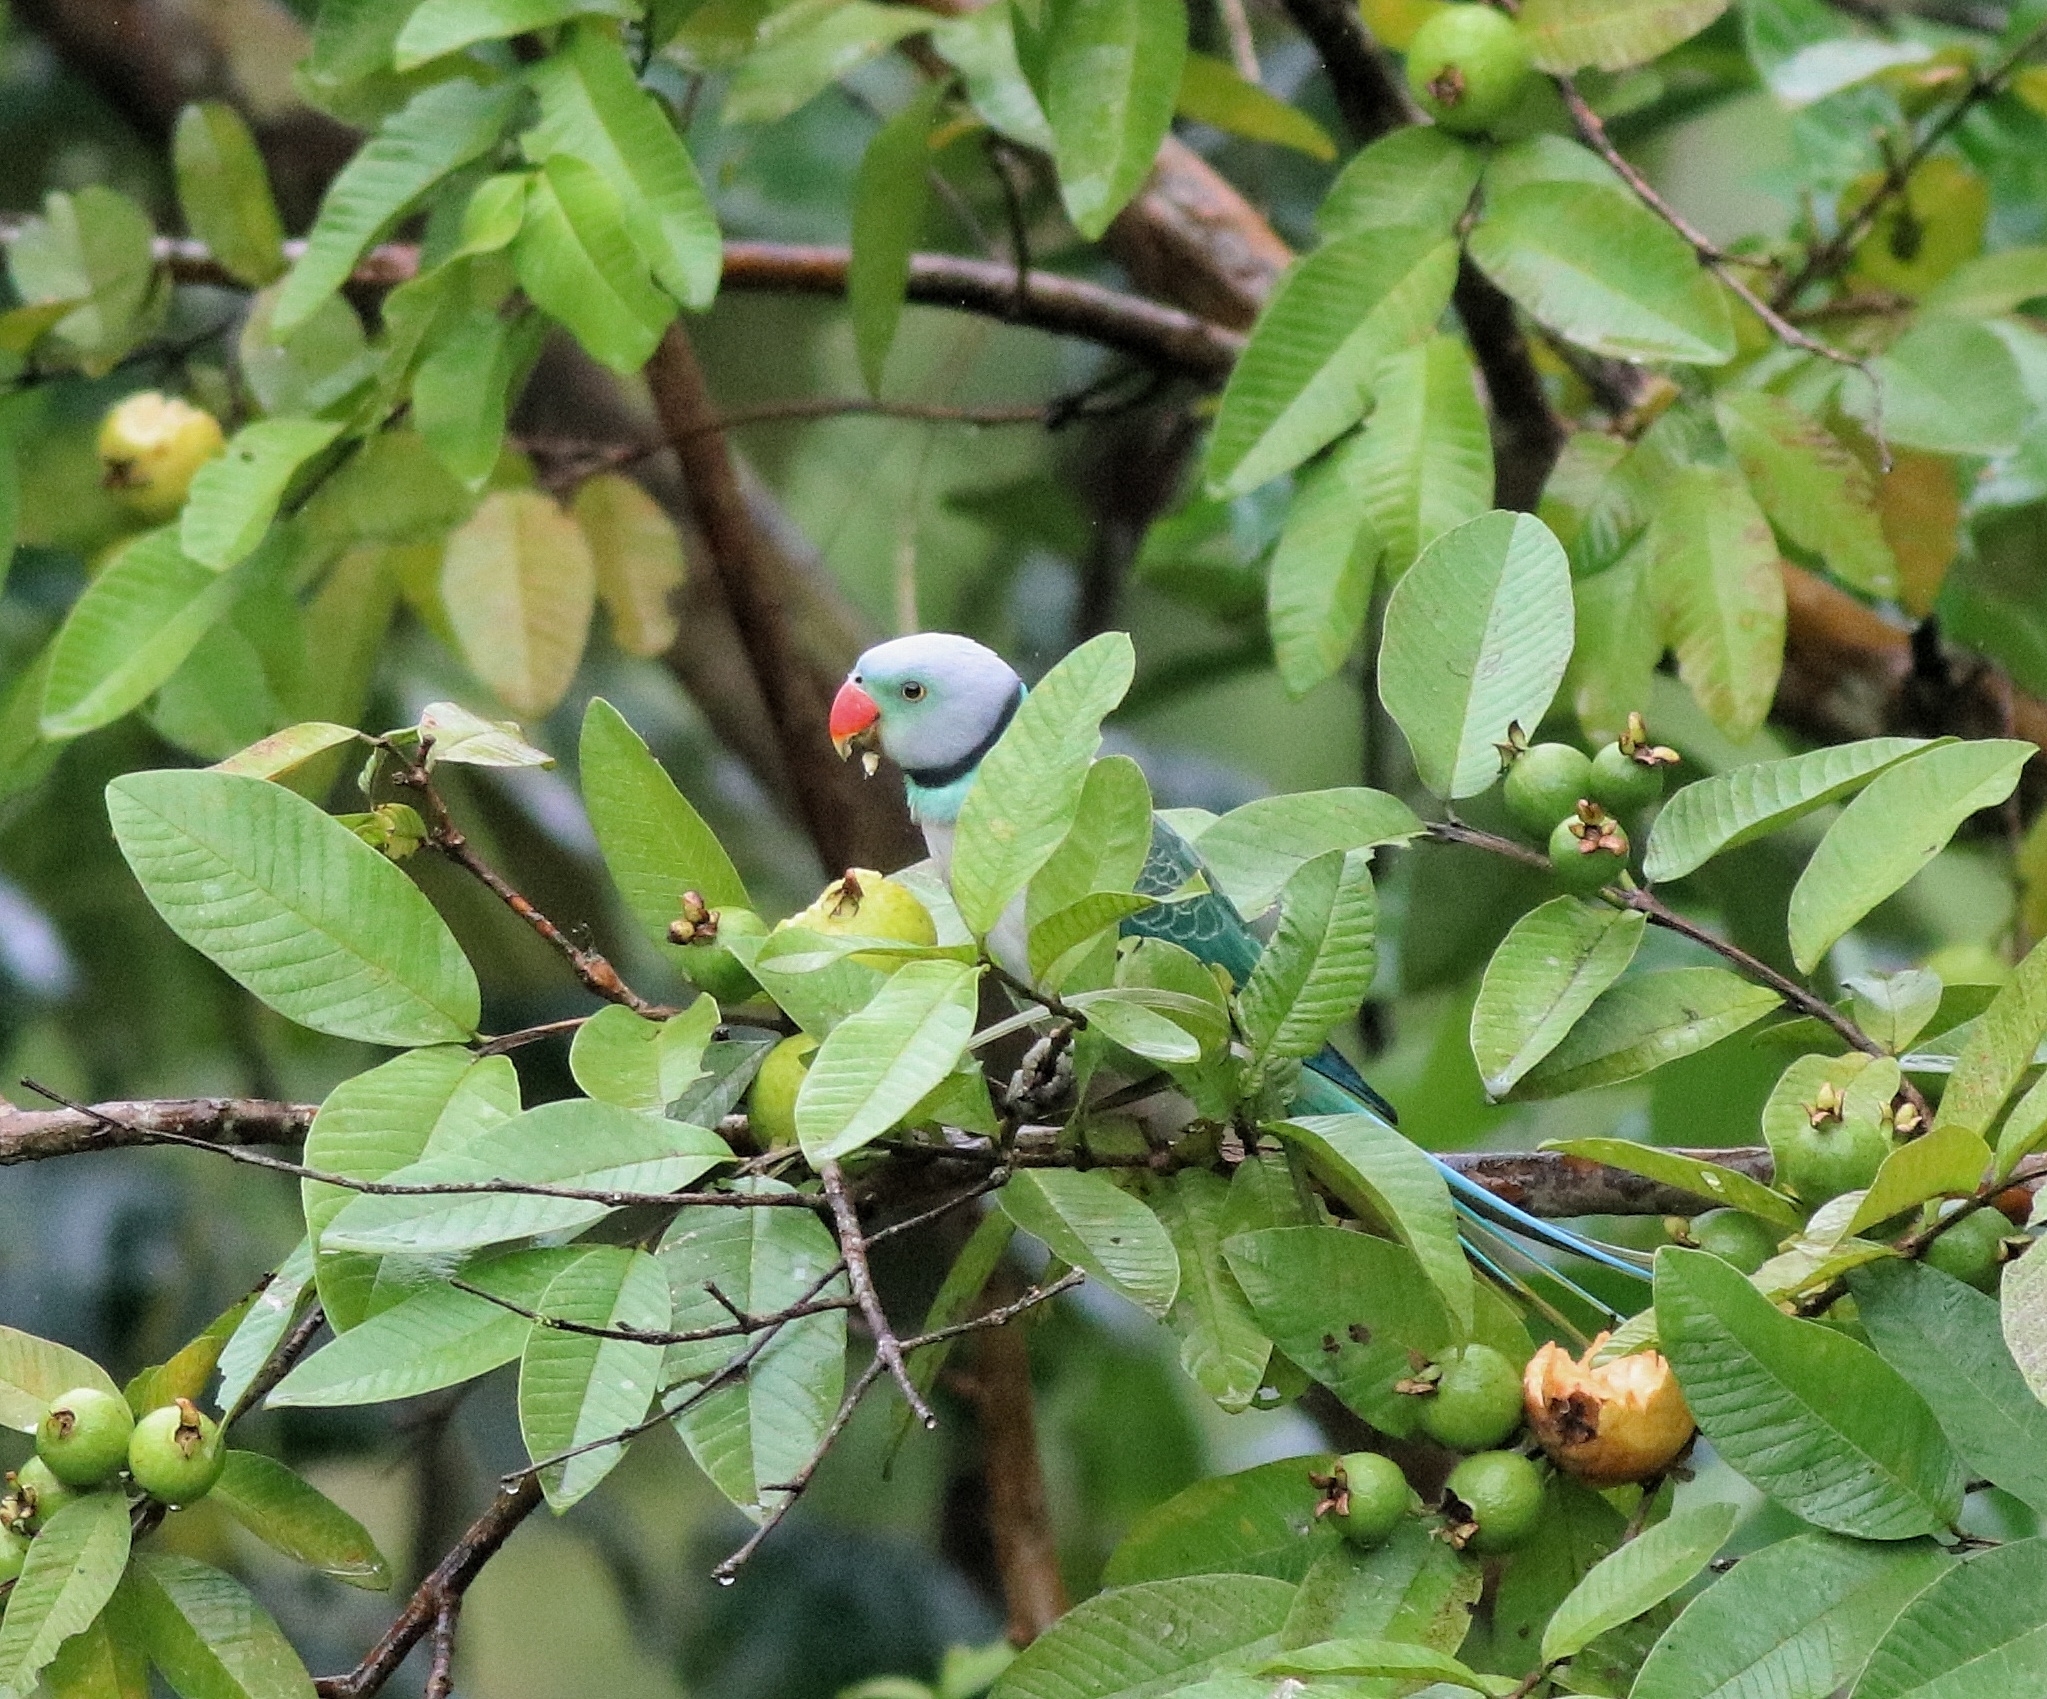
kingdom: Animalia
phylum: Chordata
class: Aves
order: Psittaciformes
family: Psittacidae
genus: Psittacula
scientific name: Psittacula columboides
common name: Blue-winged parakeet
